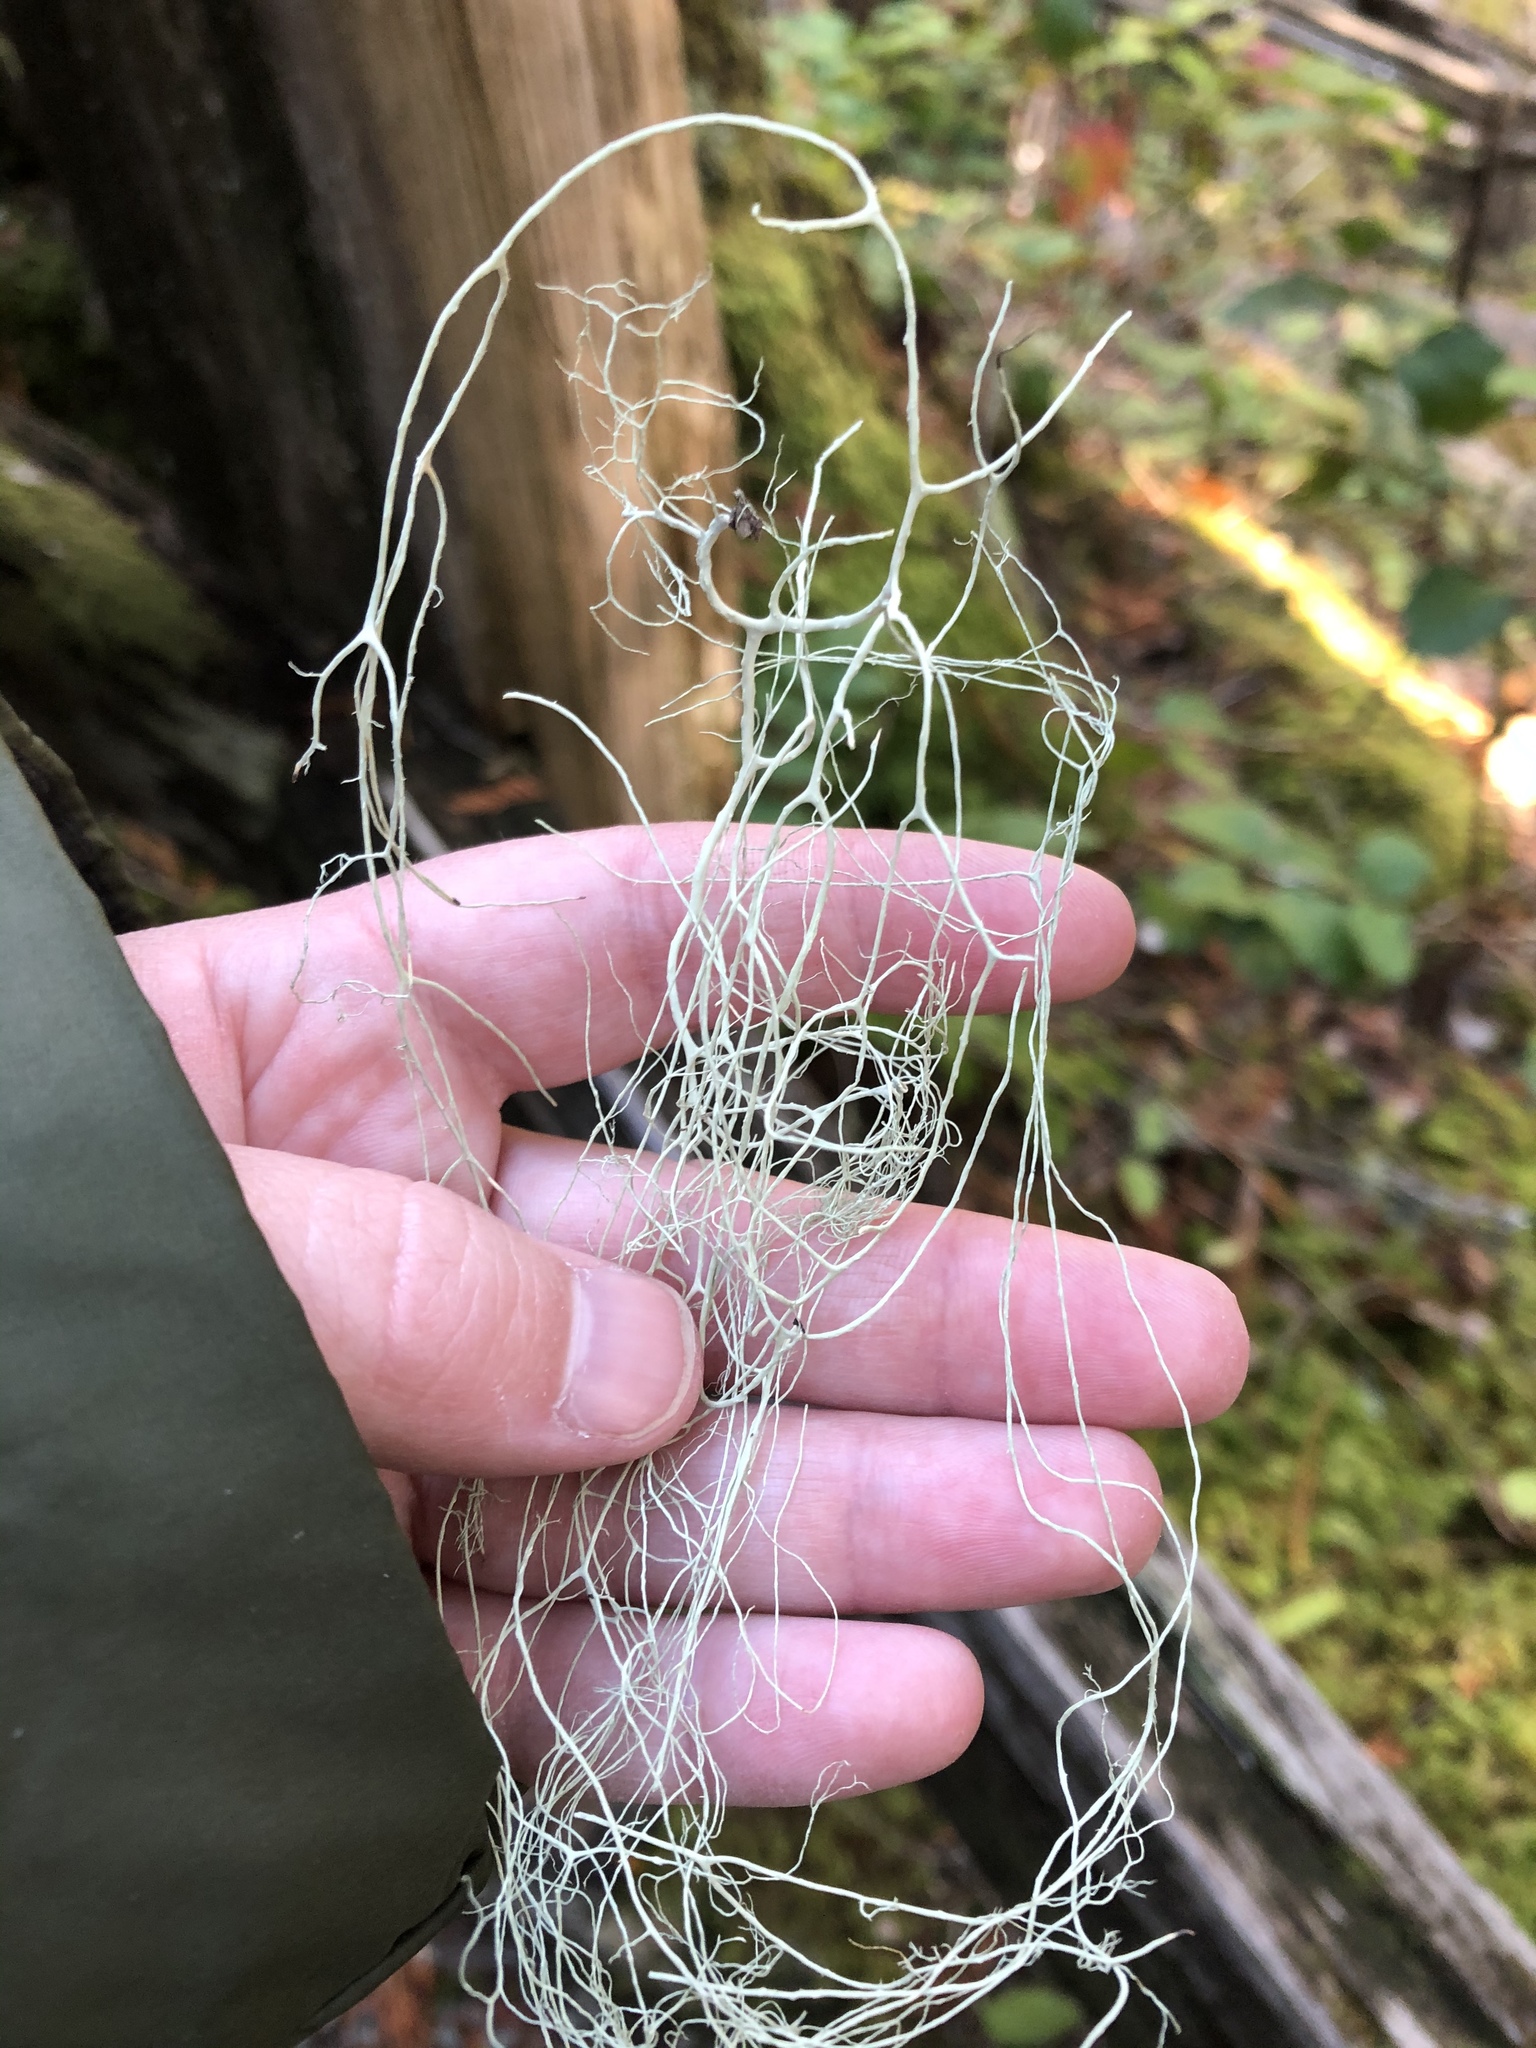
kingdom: Fungi
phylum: Ascomycota
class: Lecanoromycetes
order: Lecanorales
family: Parmeliaceae
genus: Alectoria
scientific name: Alectoria sarmentosa
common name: Witch's hair
